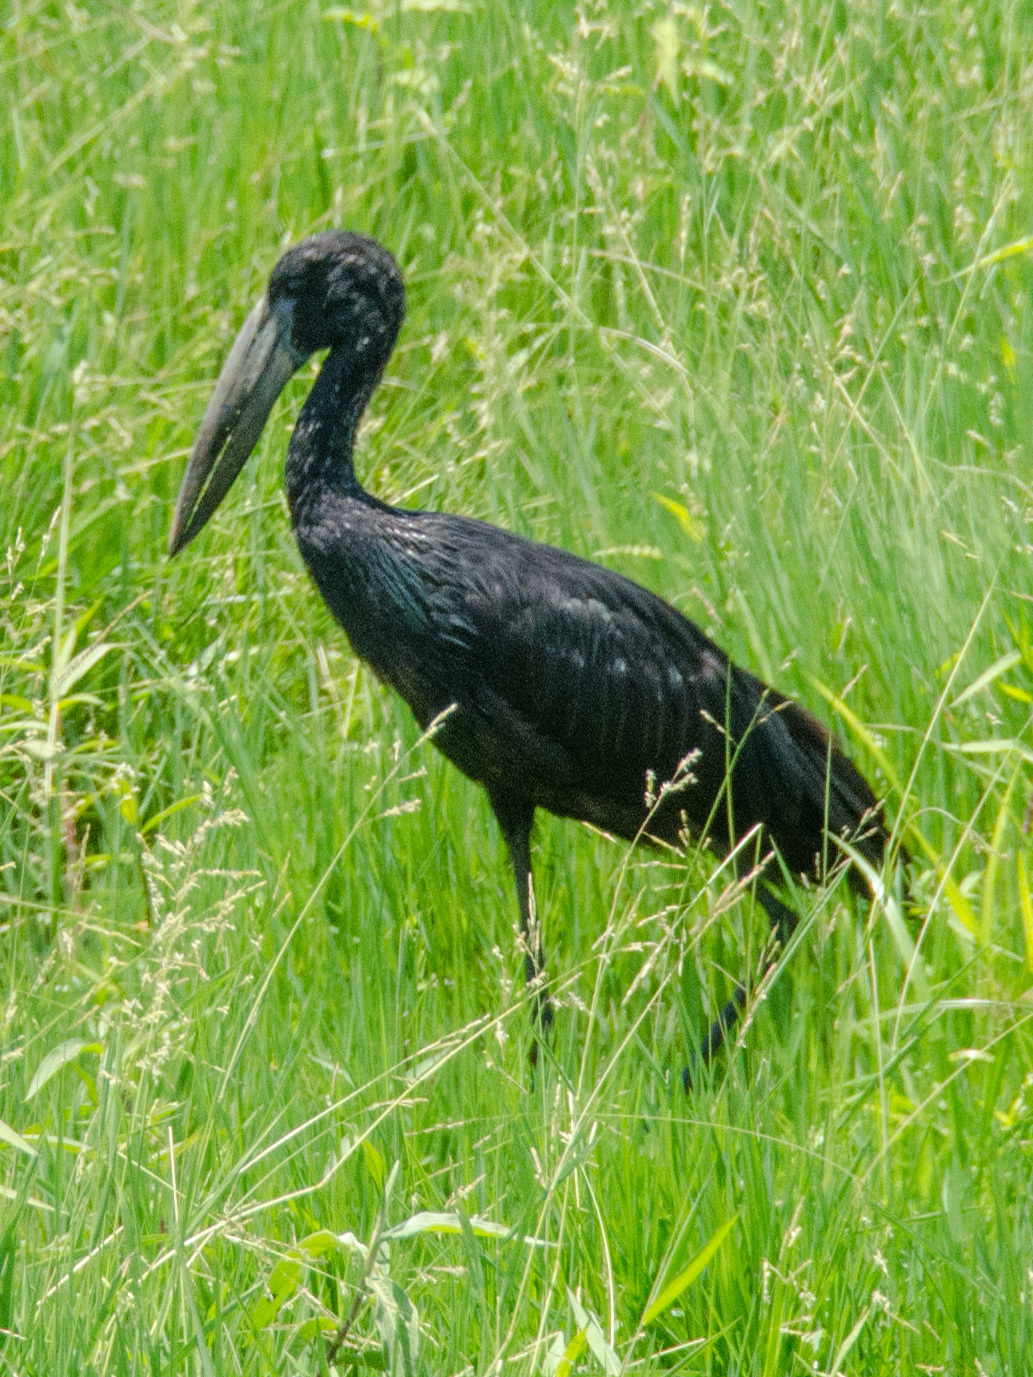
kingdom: Animalia
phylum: Chordata
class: Aves
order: Ciconiiformes
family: Ciconiidae
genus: Anastomus
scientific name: Anastomus lamelligerus
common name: African openbill
